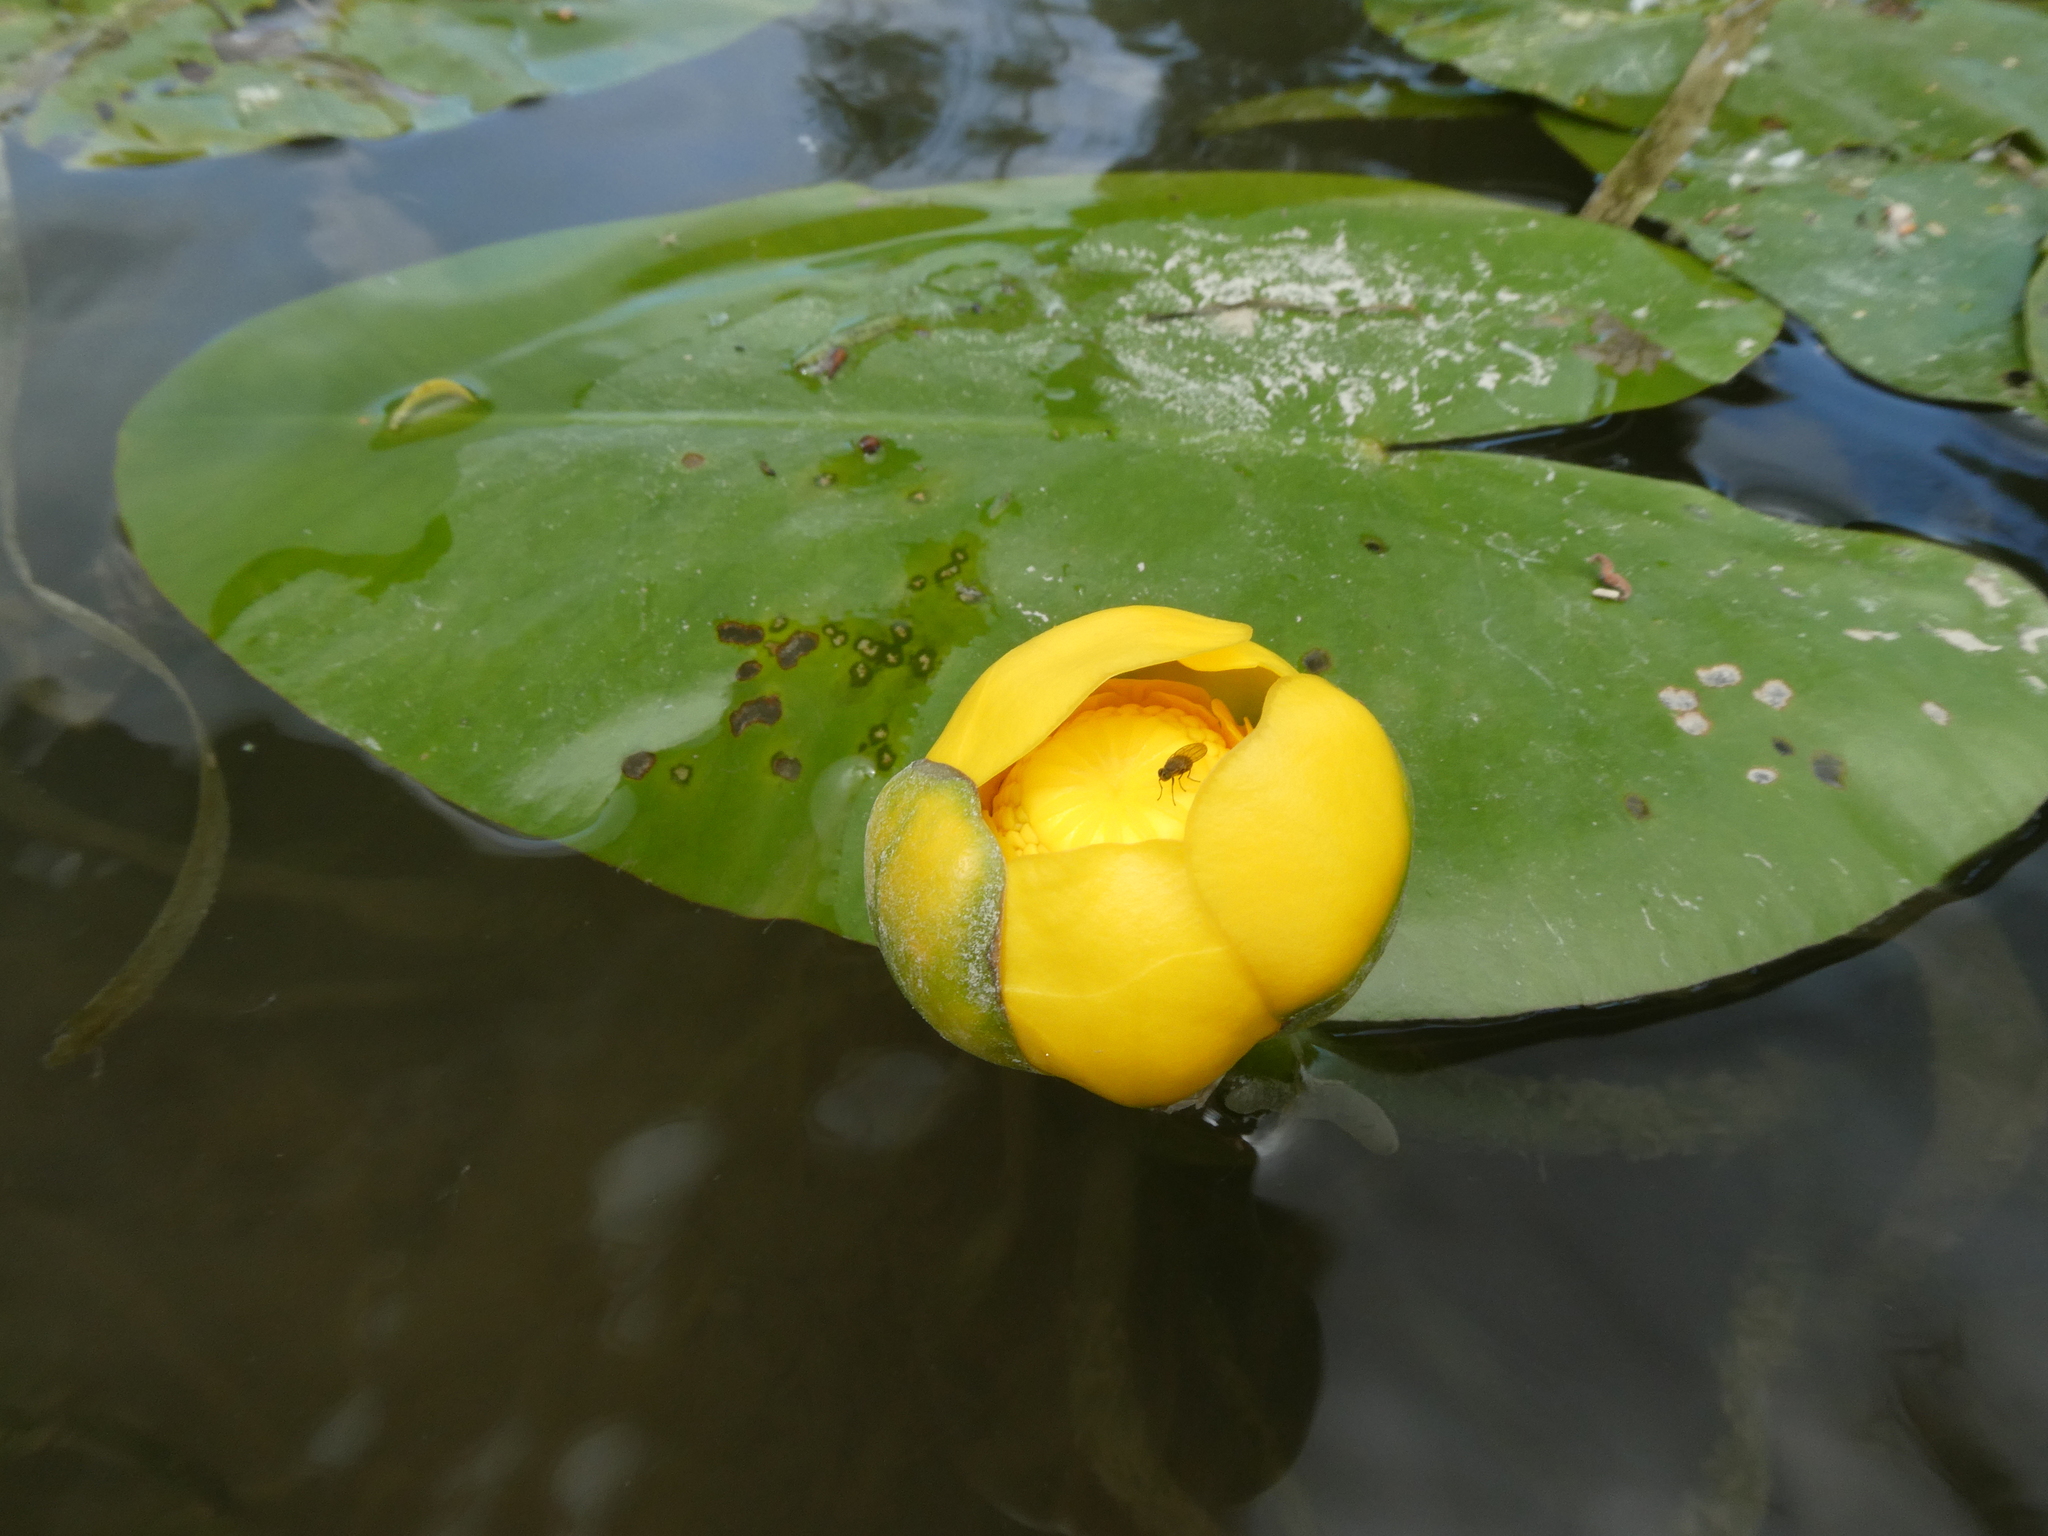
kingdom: Plantae
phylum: Tracheophyta
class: Magnoliopsida
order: Nymphaeales
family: Nymphaeaceae
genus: Nuphar
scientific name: Nuphar lutea
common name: Yellow water-lily
